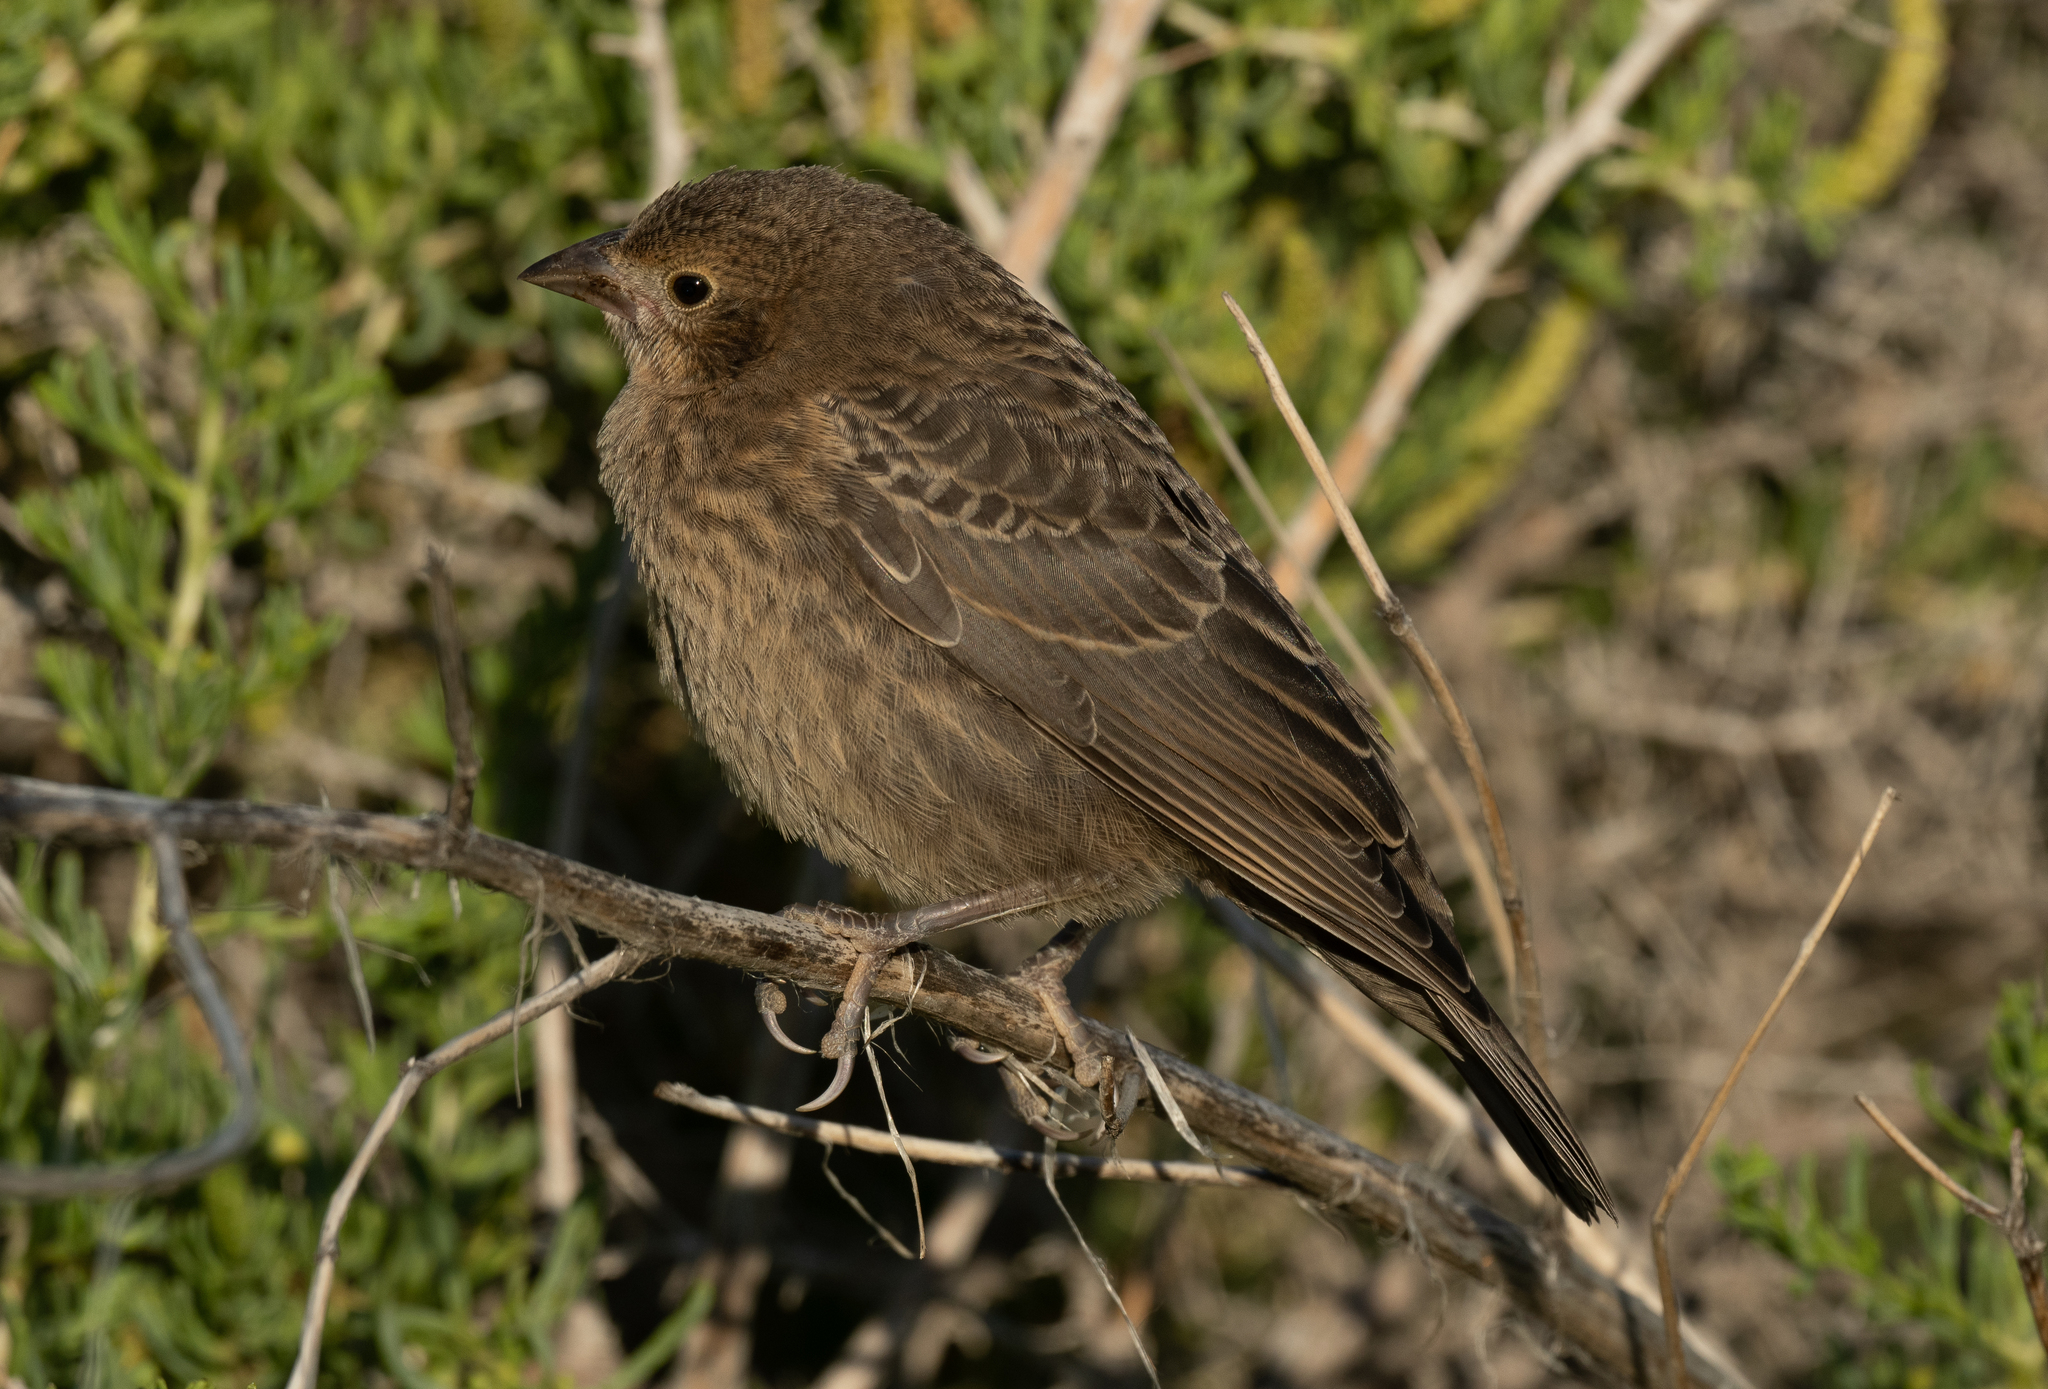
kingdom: Animalia
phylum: Chordata
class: Aves
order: Passeriformes
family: Icteridae
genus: Molothrus
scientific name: Molothrus ater
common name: Brown-headed cowbird
